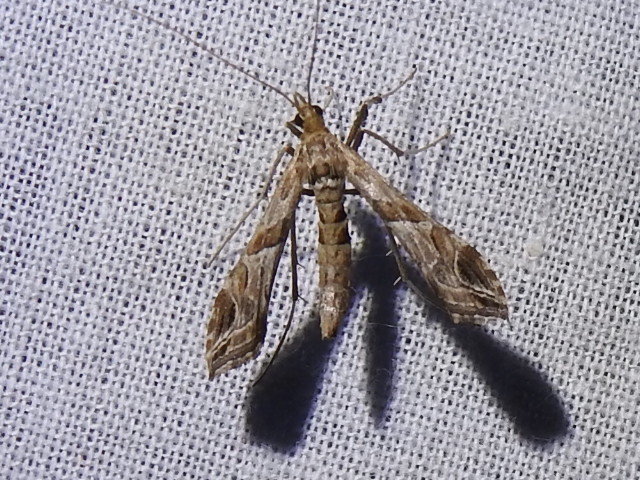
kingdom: Animalia
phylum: Arthropoda
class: Insecta
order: Lepidoptera
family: Crambidae
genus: Lineodes
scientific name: Lineodes interrupta
